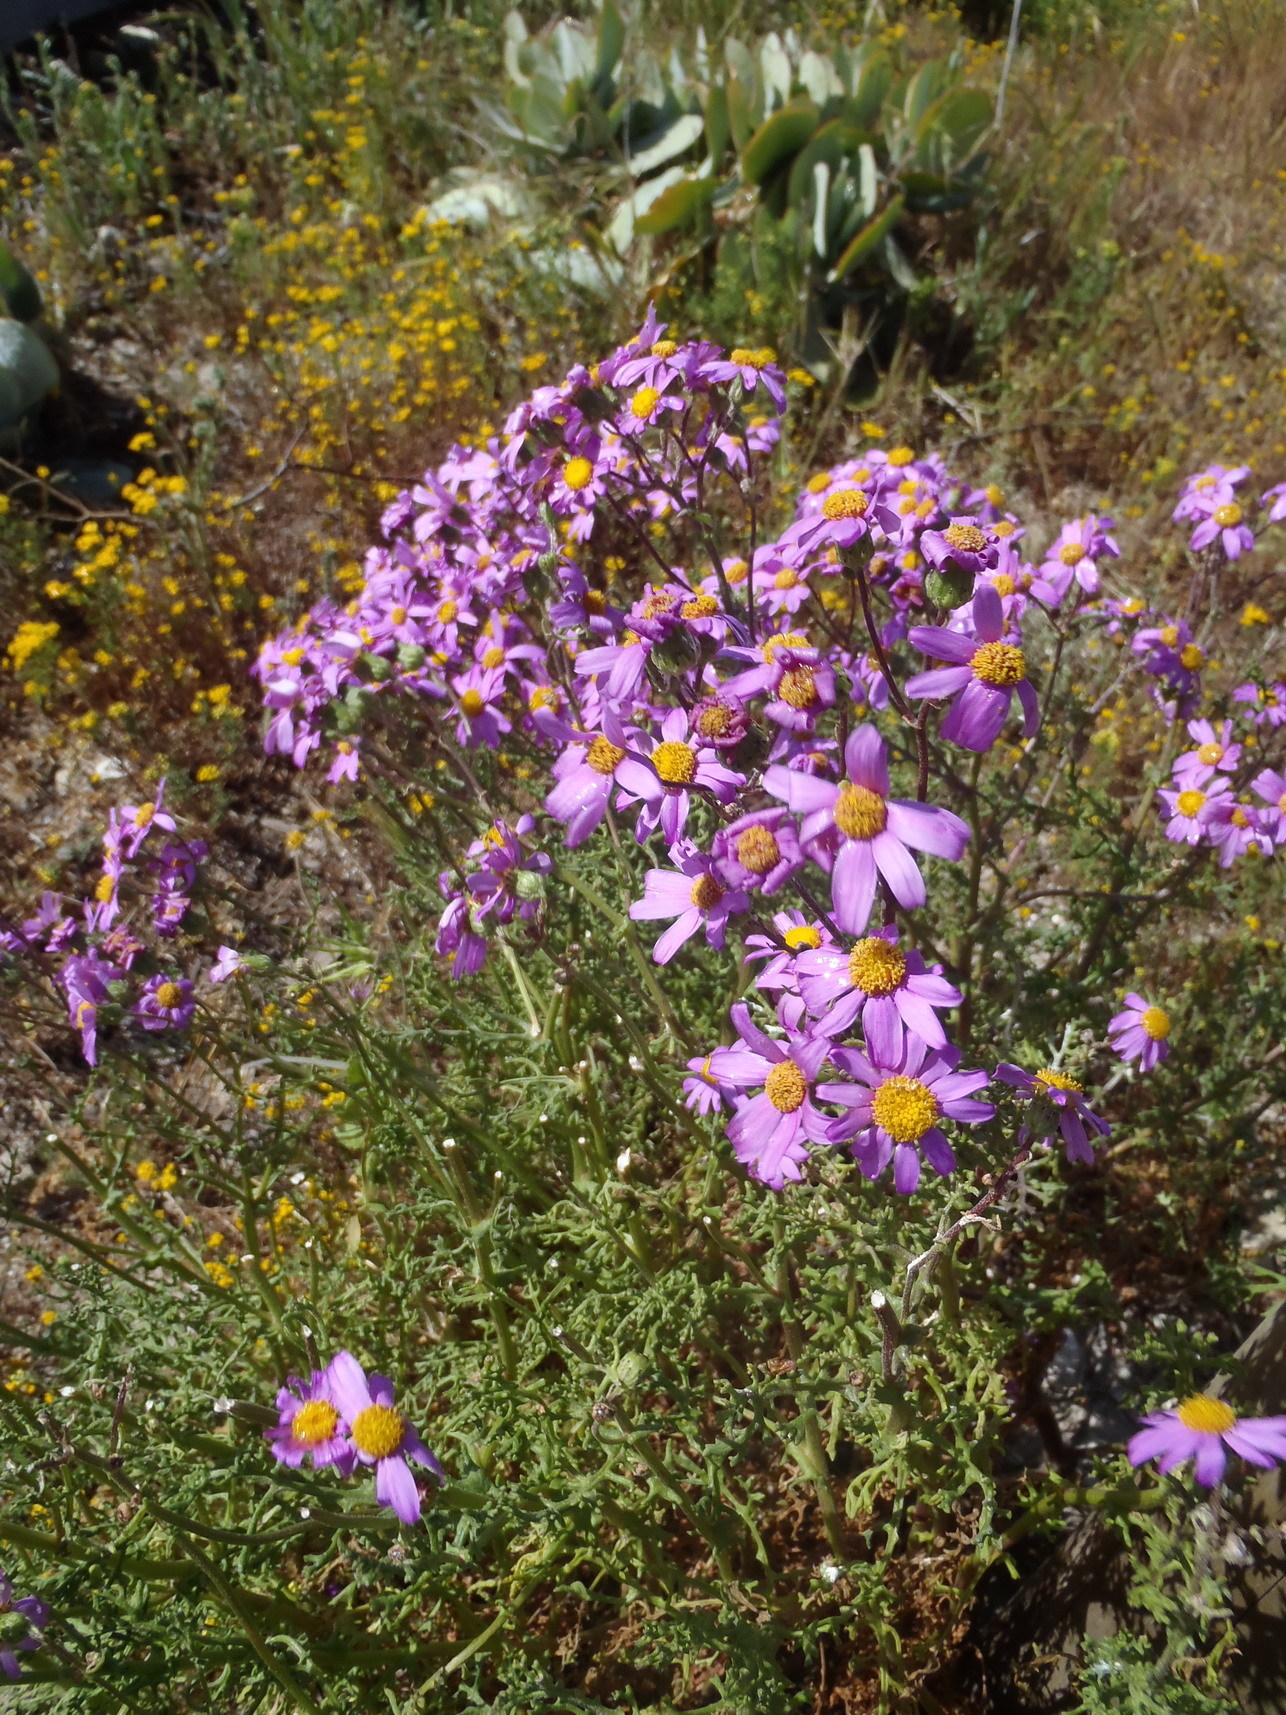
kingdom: Plantae
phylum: Tracheophyta
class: Magnoliopsida
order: Asterales
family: Asteraceae
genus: Senecio
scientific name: Senecio elegans
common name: Purple groundsel
